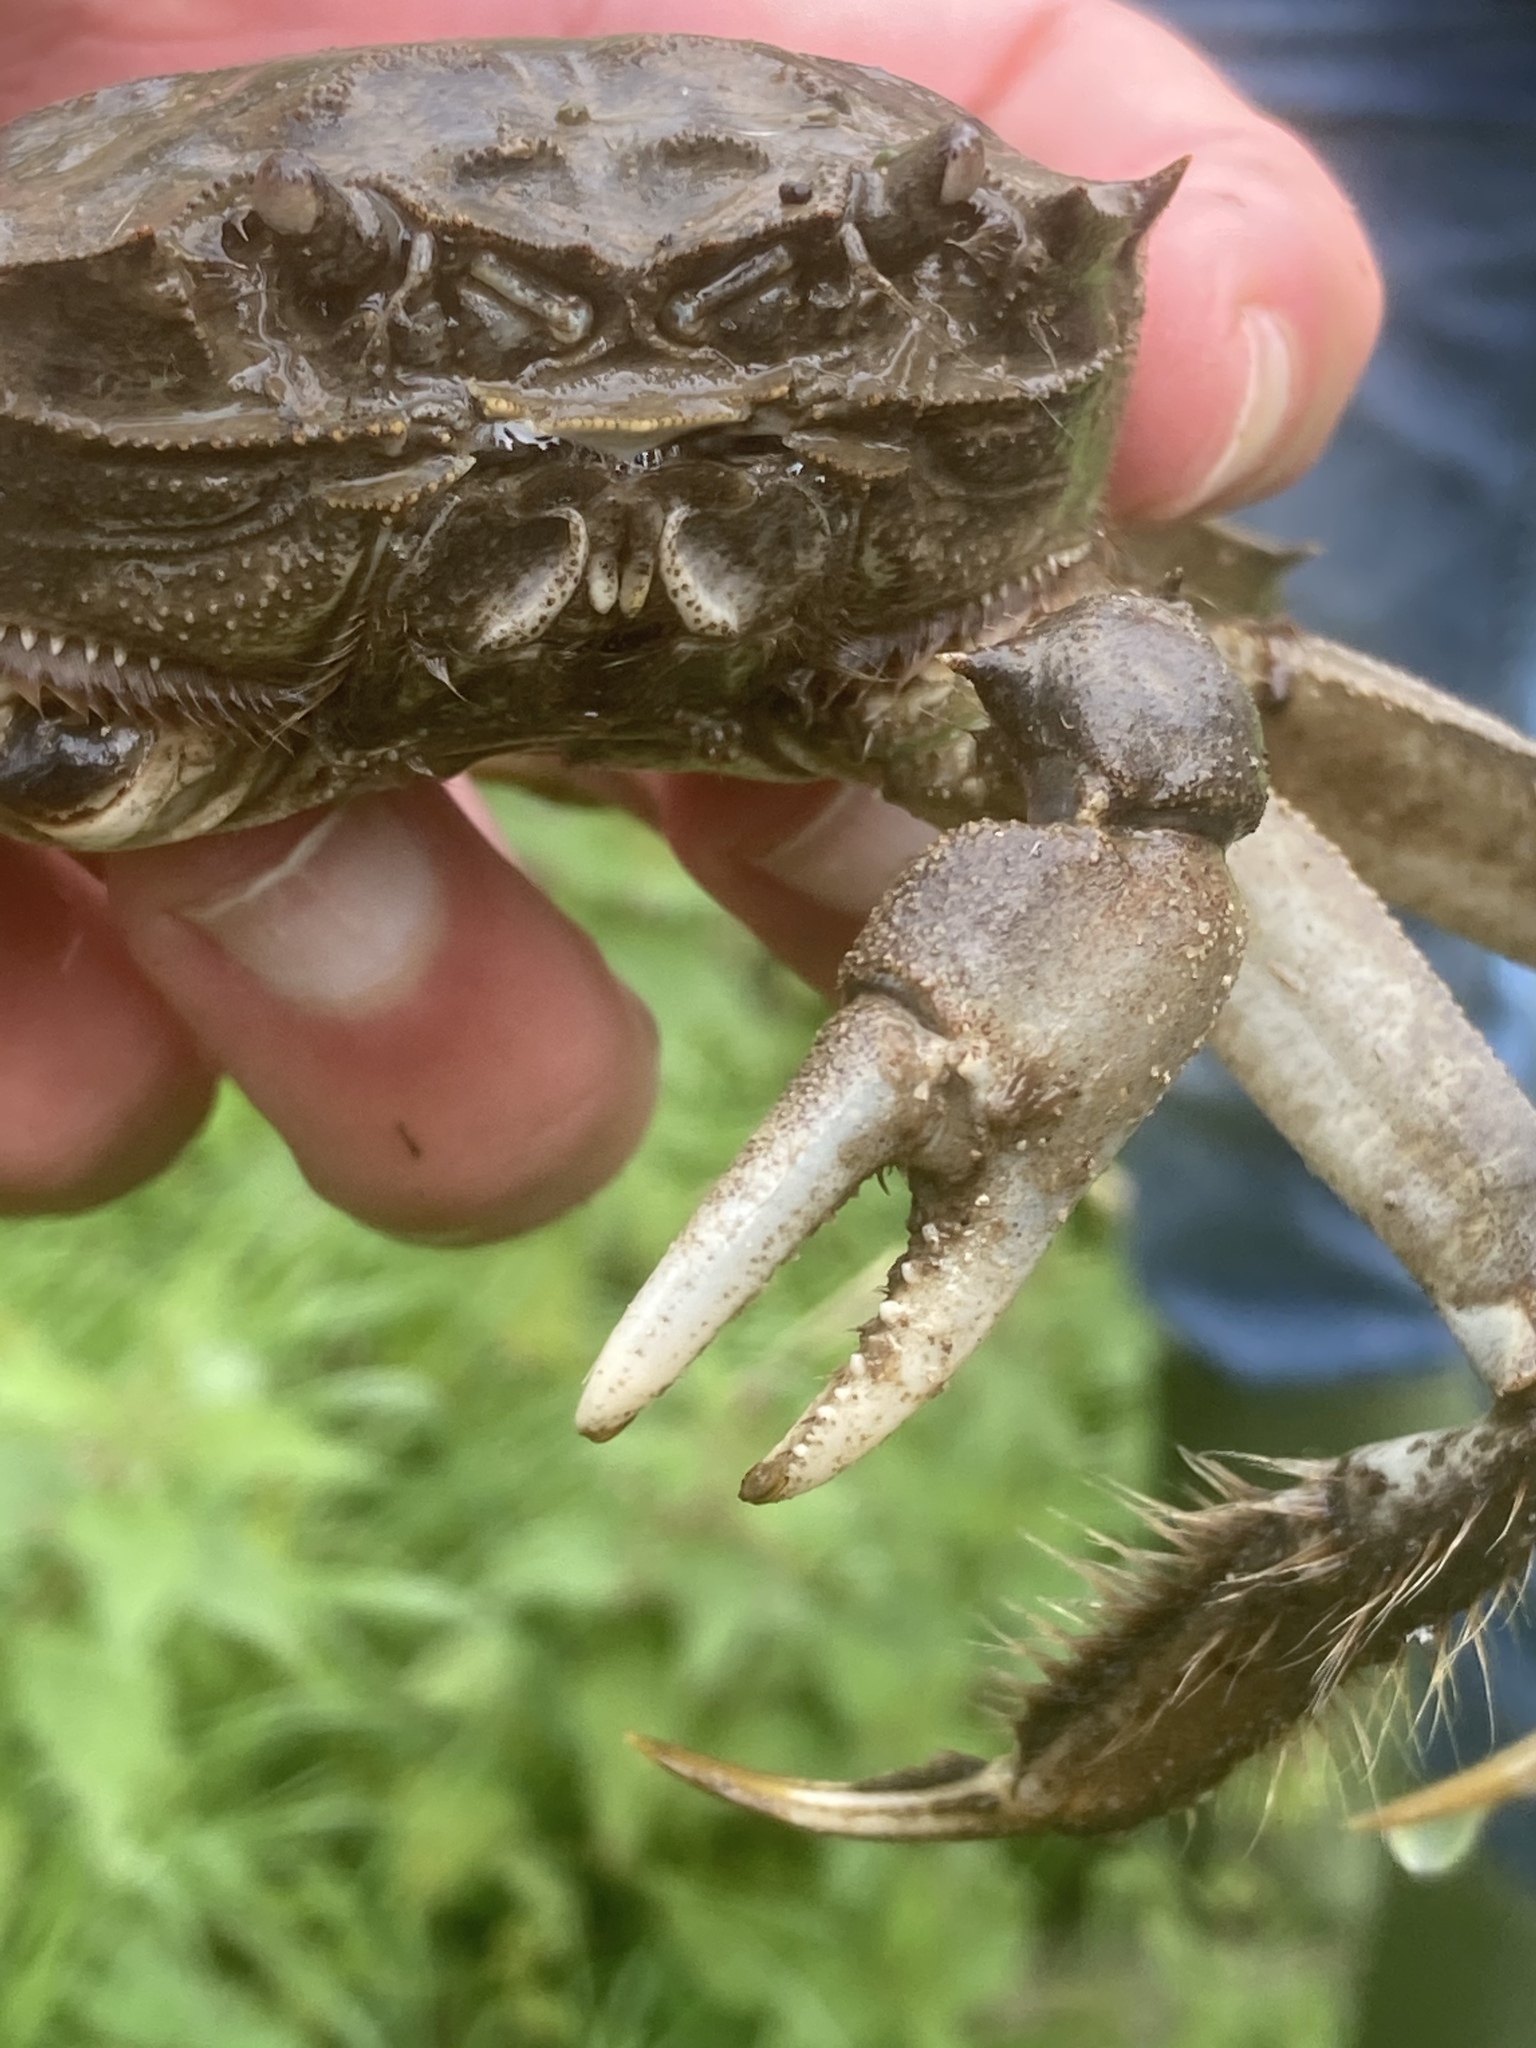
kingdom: Animalia
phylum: Arthropoda
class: Malacostraca
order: Decapoda
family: Varunidae
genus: Eriocheir
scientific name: Eriocheir sinensis
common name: Chinese mitten crab
